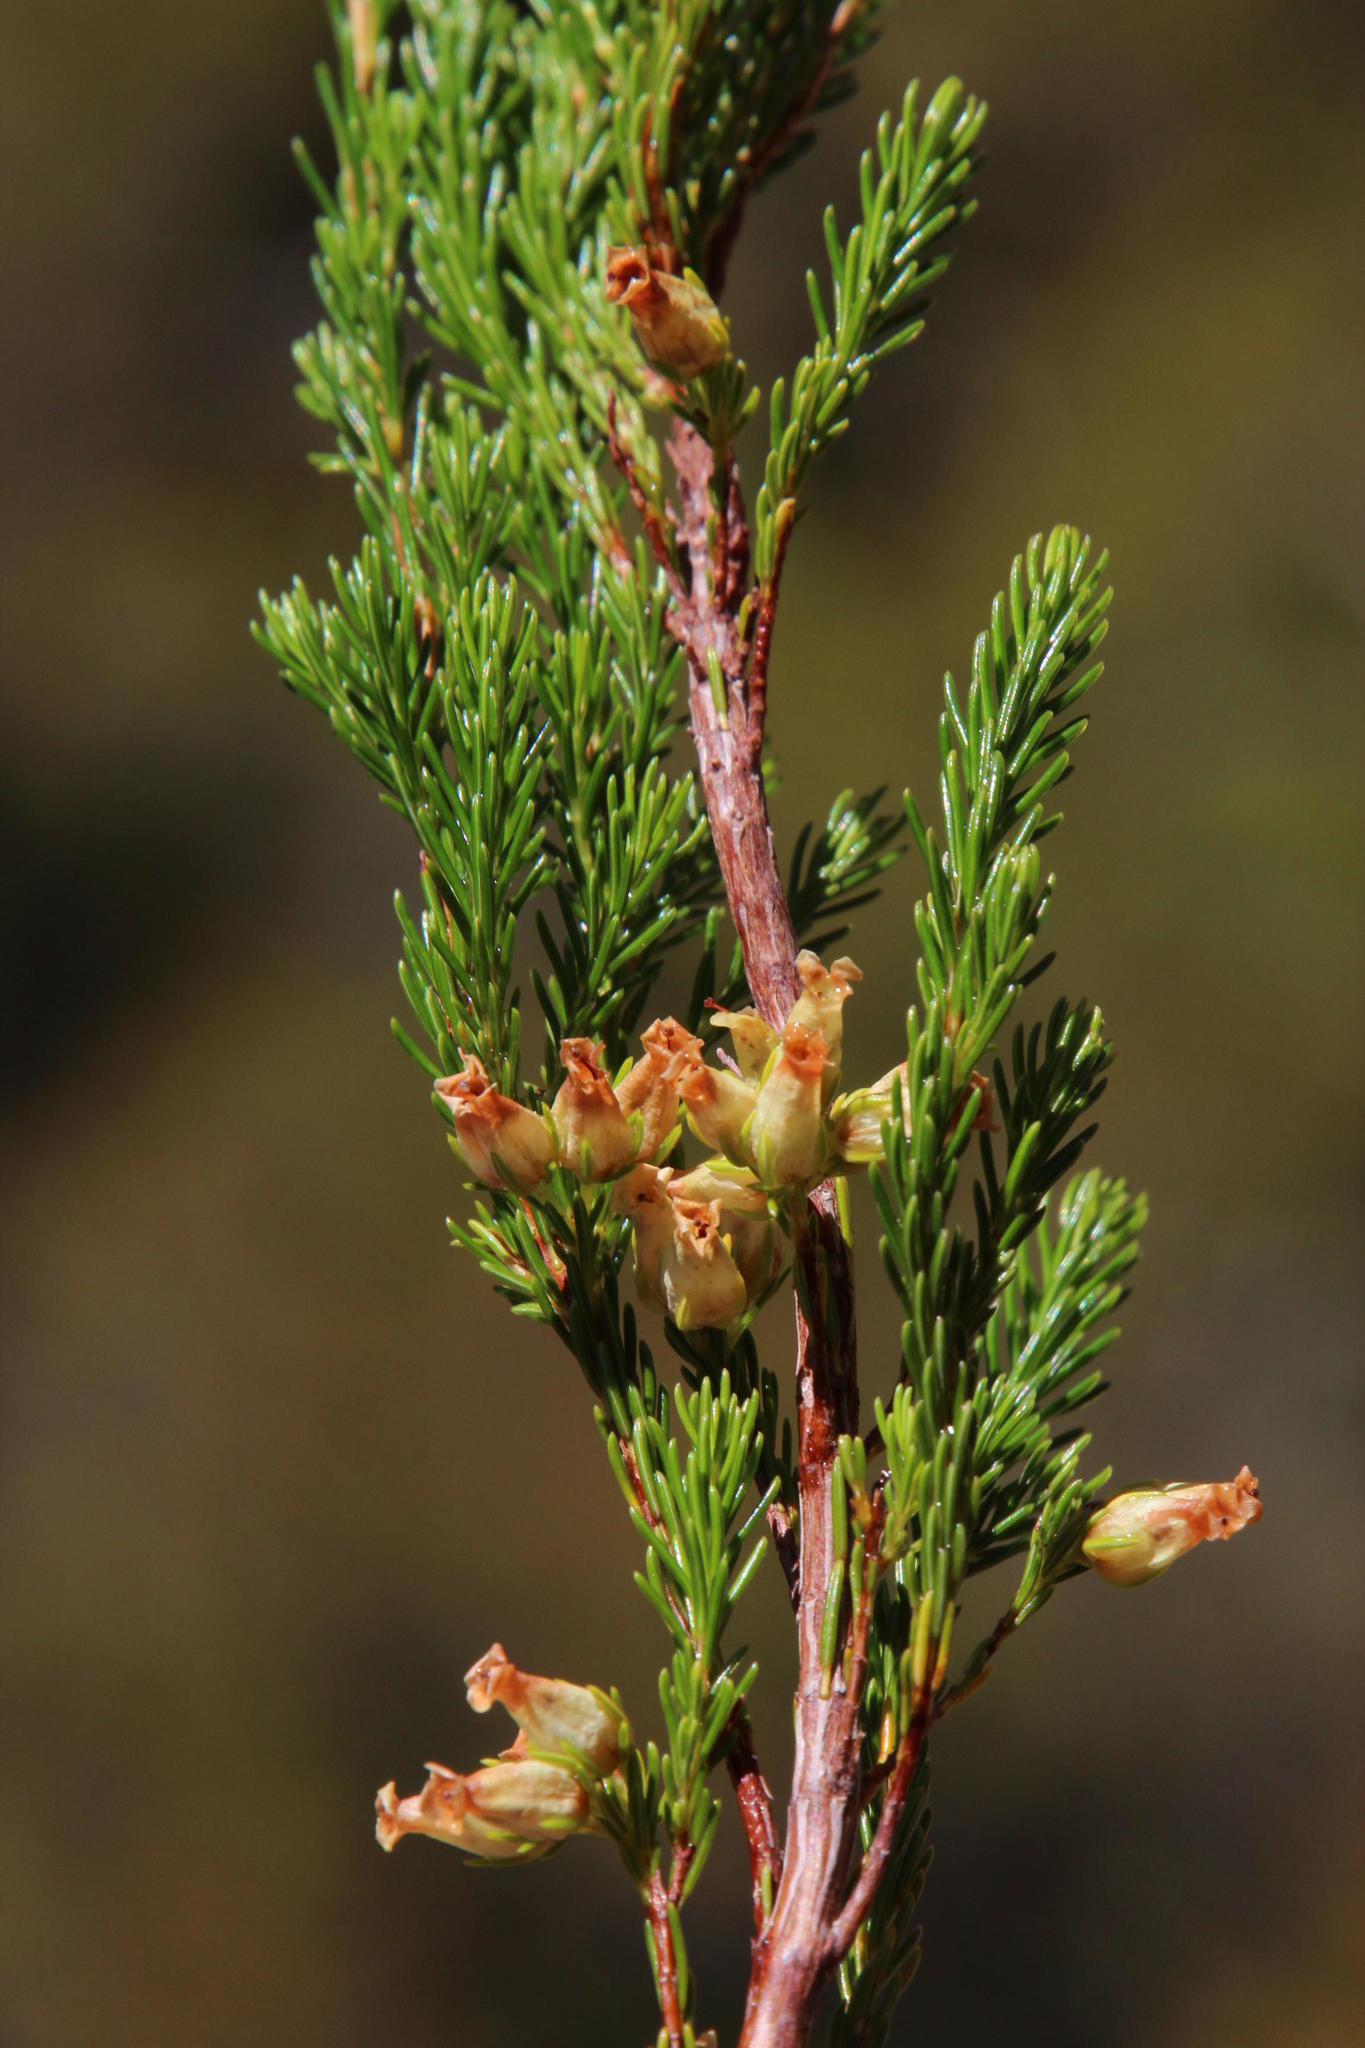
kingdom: Plantae
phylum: Tracheophyta
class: Magnoliopsida
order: Ericales
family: Ericaceae
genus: Erica
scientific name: Erica caffra
